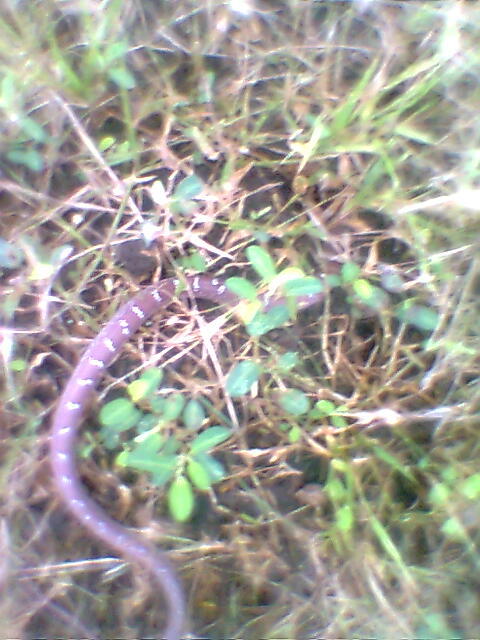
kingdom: Animalia
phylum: Chordata
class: Squamata
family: Colubridae
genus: Lycodon
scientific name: Lycodon aulicus
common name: Common wolf snake
